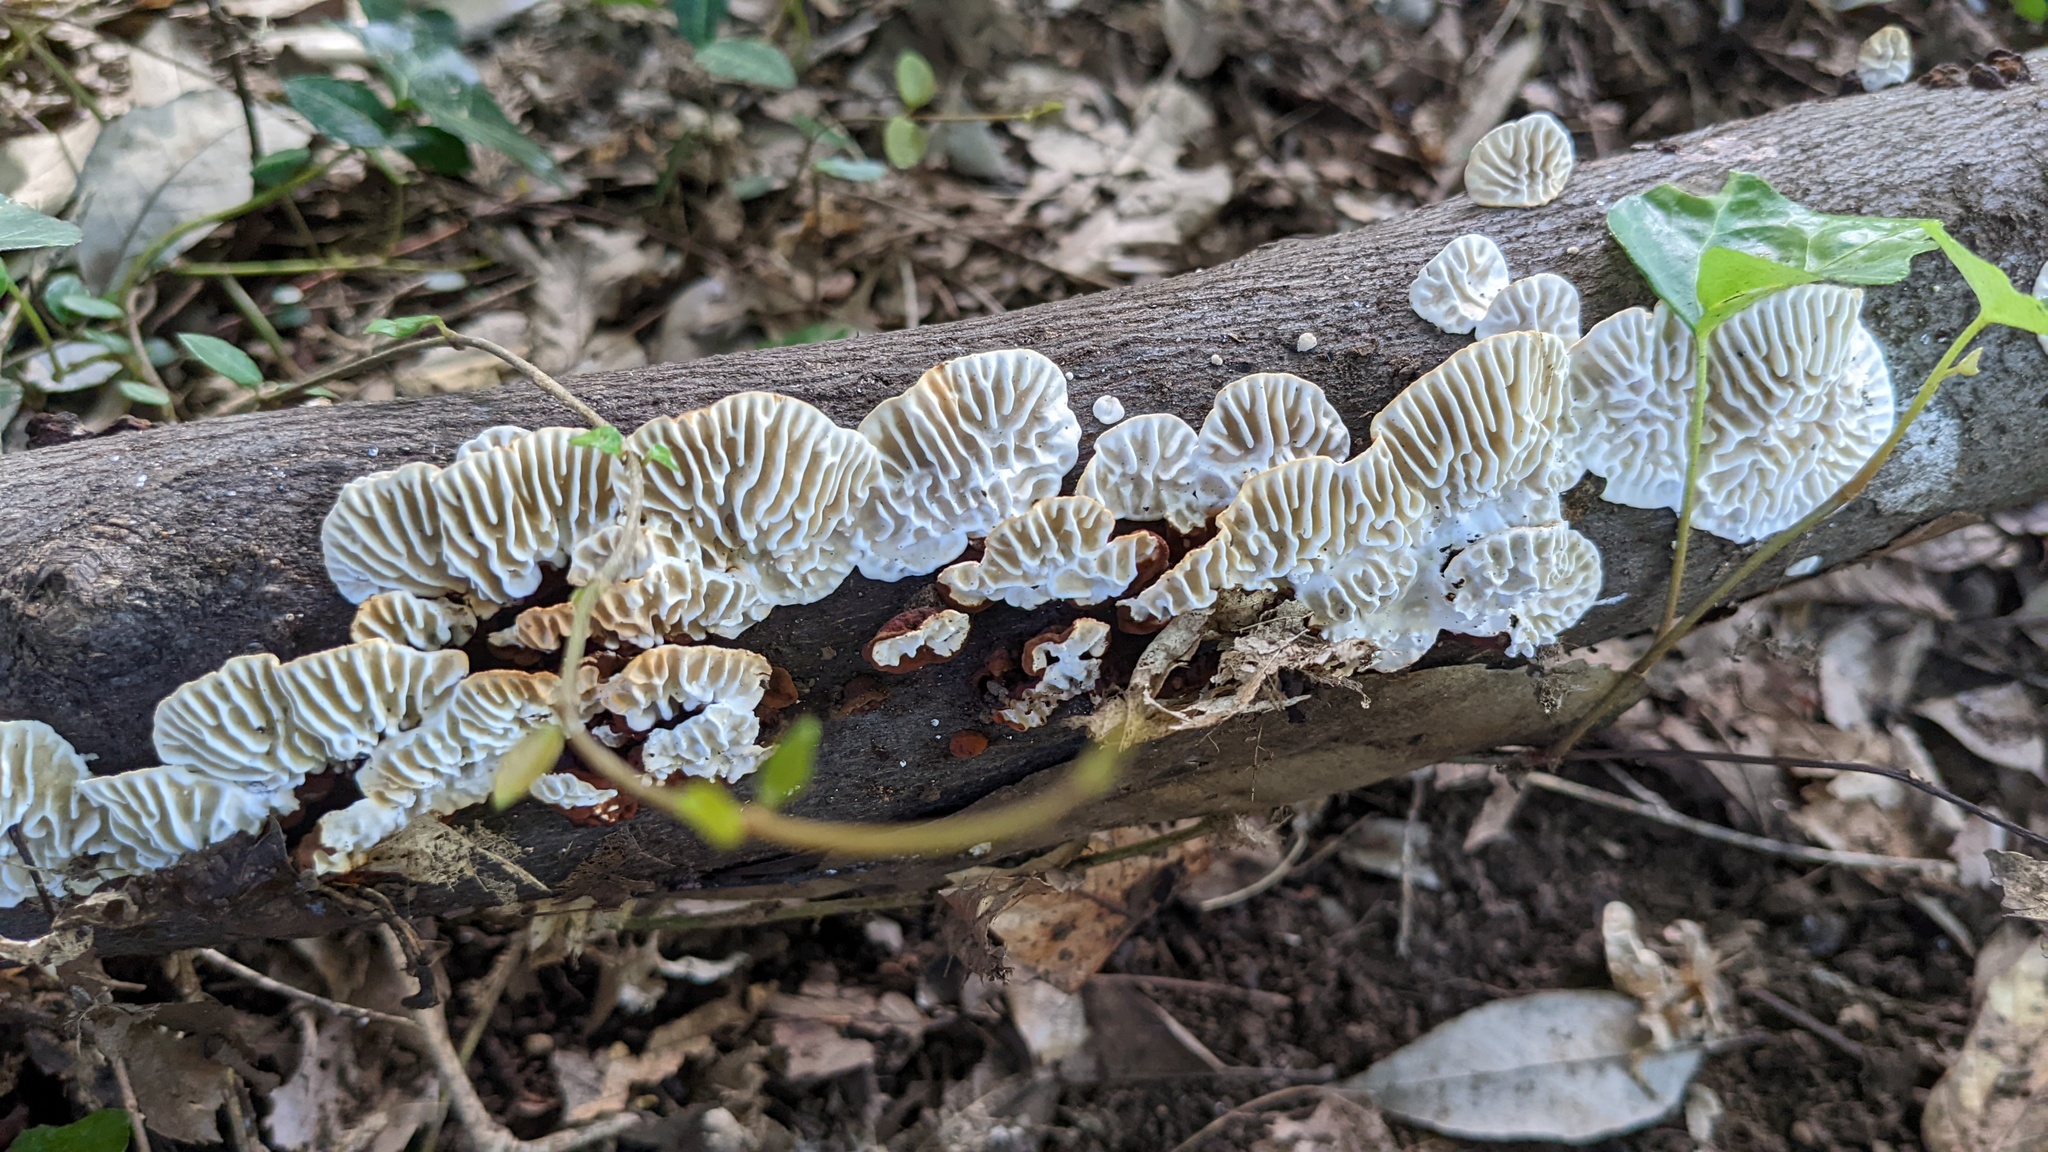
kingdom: Fungi
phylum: Basidiomycota
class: Agaricomycetes
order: Polyporales
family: Polyporaceae
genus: Lenzites
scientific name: Lenzites styracinus
